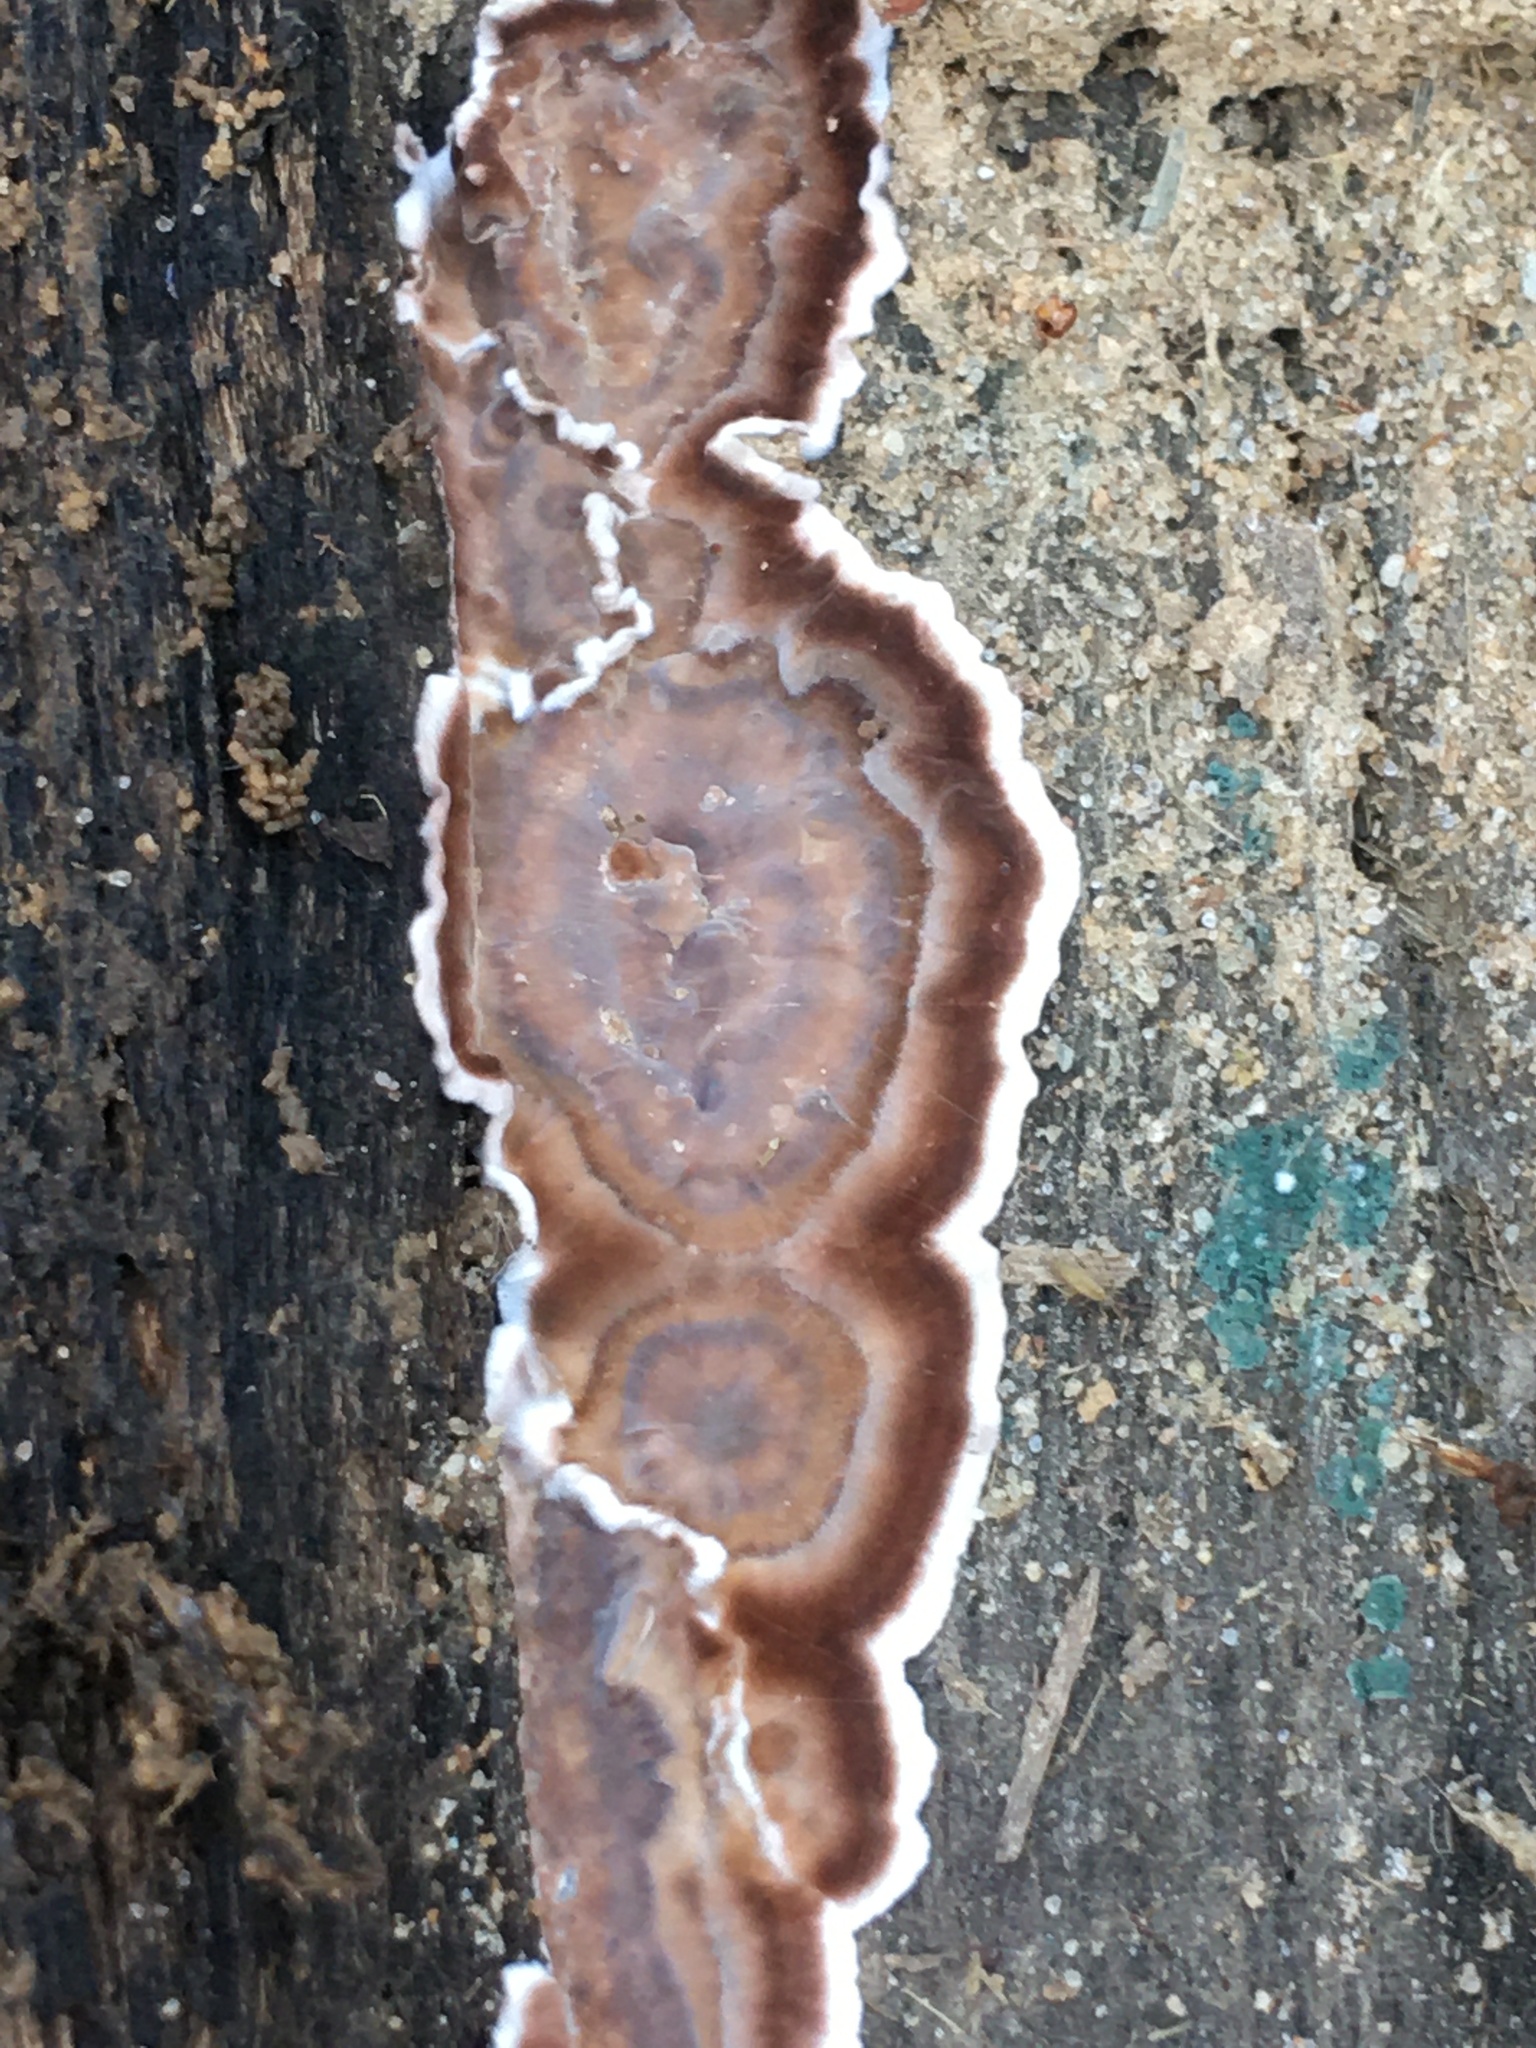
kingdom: Fungi
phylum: Basidiomycota
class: Agaricomycetes
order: Russulales
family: Peniophoraceae
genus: Peniophora
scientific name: Peniophora albobadia
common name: Giraffe spots
